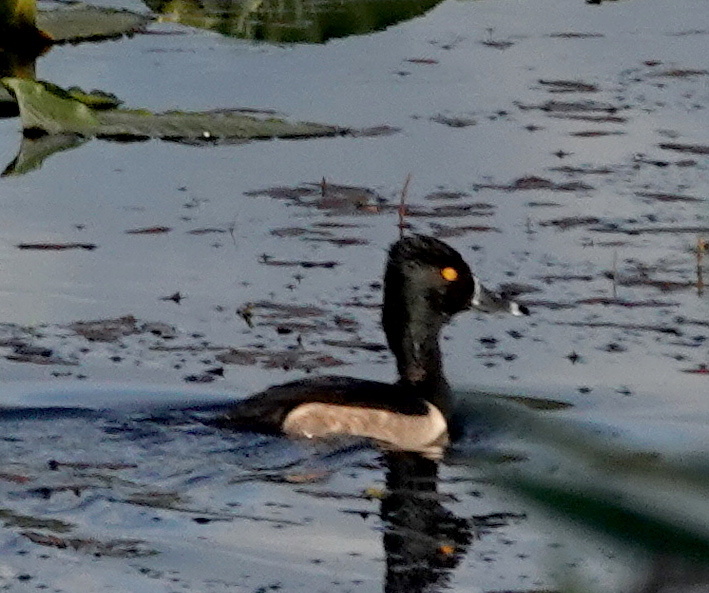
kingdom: Animalia
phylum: Chordata
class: Aves
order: Anseriformes
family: Anatidae
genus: Aythya
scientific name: Aythya collaris
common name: Ring-necked duck
